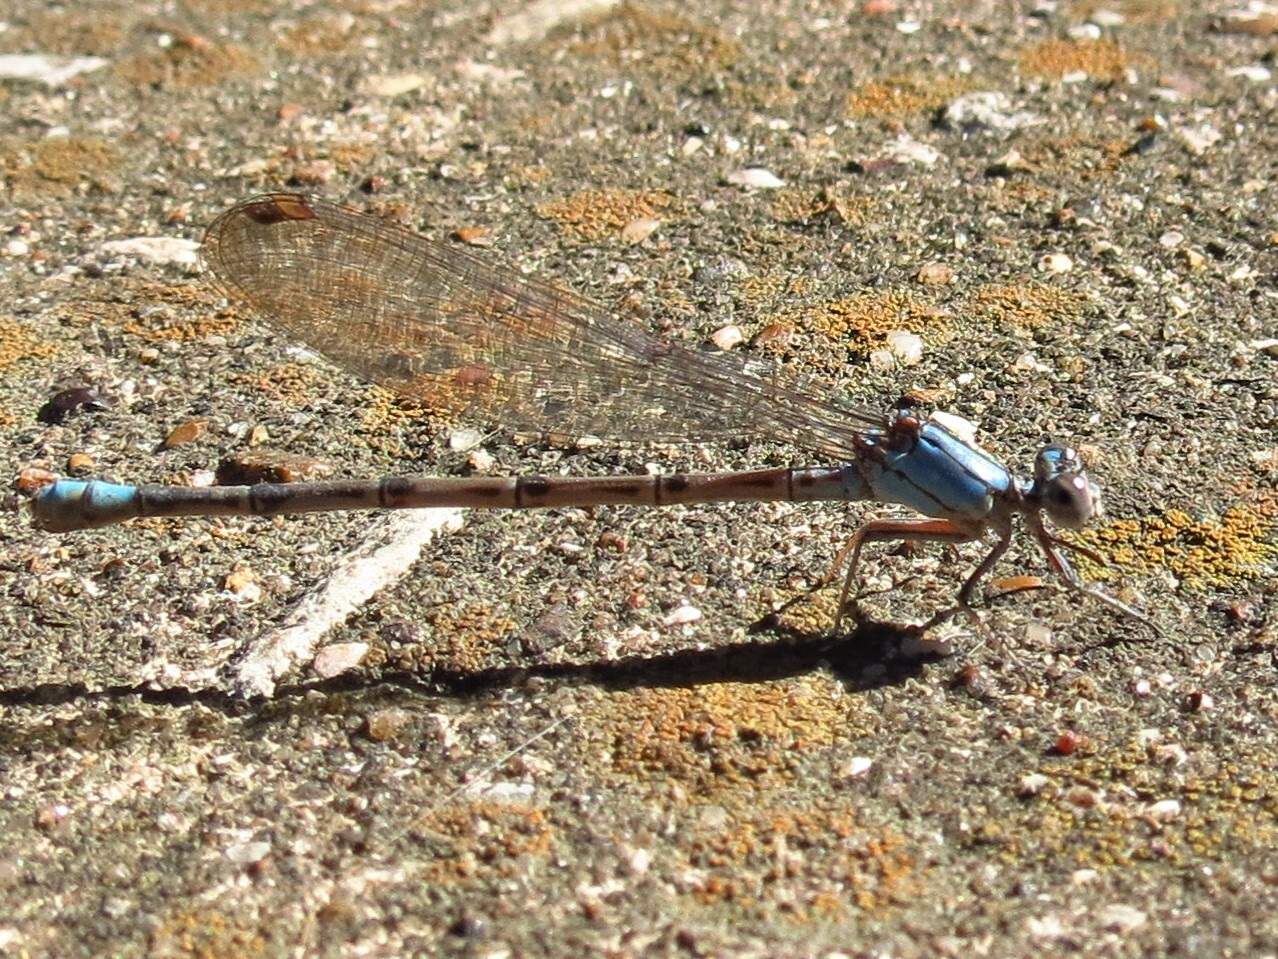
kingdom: Animalia
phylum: Arthropoda
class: Insecta
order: Odonata
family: Coenagrionidae
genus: Argia
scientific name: Argia funebris
